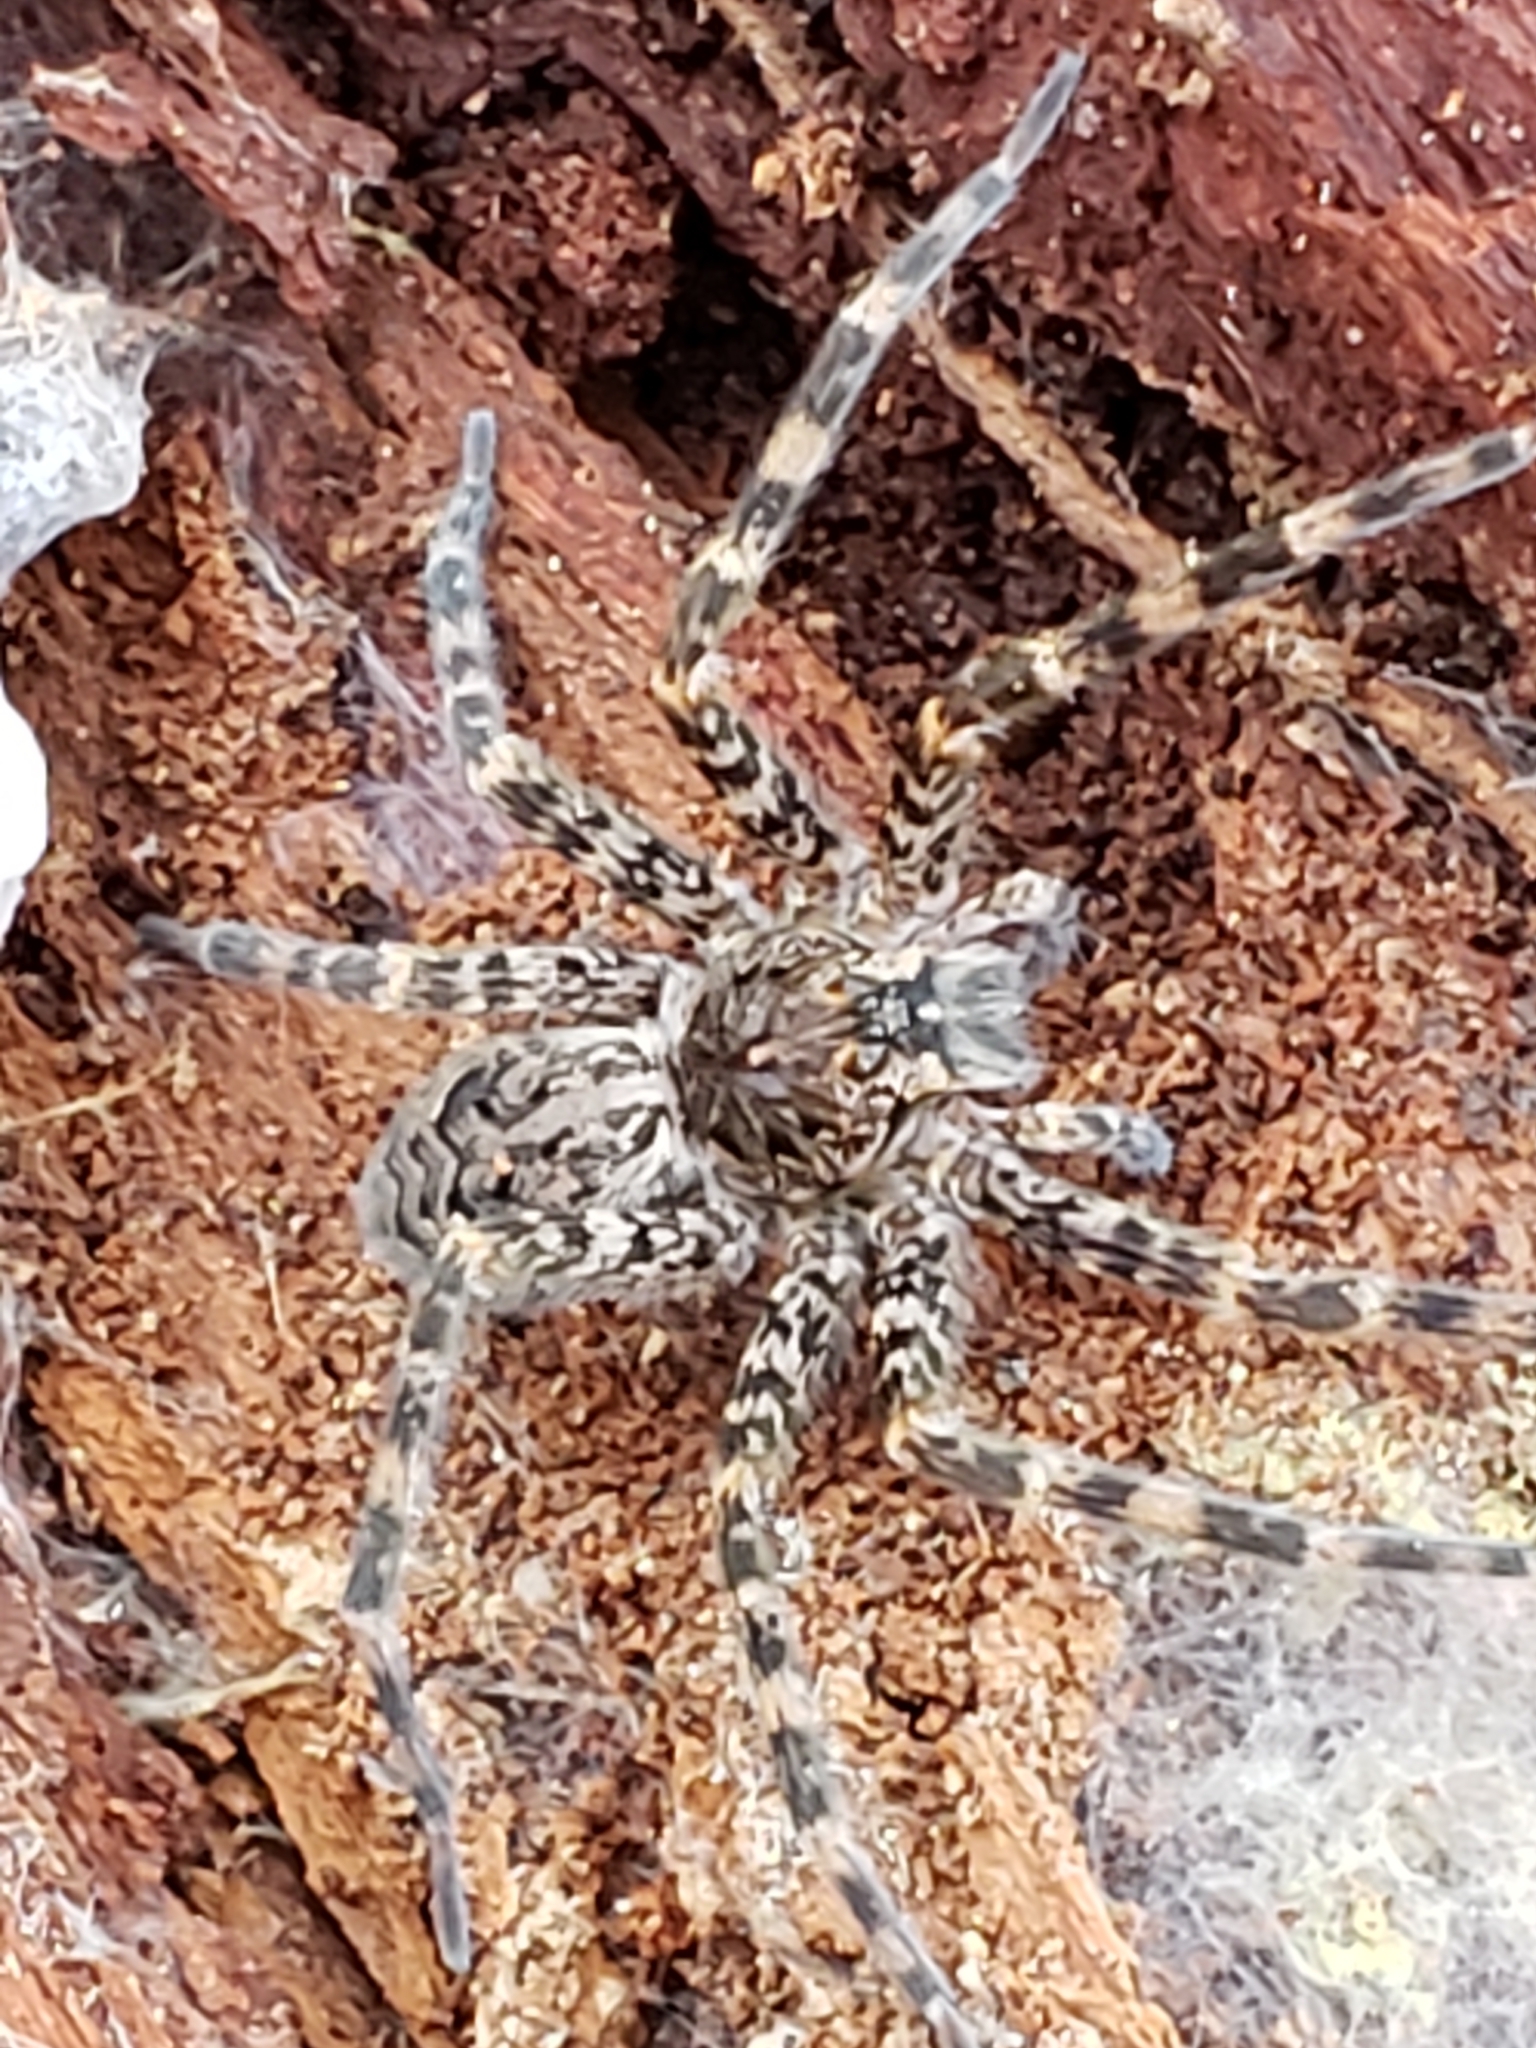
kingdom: Animalia
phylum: Arthropoda
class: Arachnida
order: Araneae
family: Pisauridae
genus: Dolomedes
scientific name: Dolomedes tenebrosus
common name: Dark fishing spider
